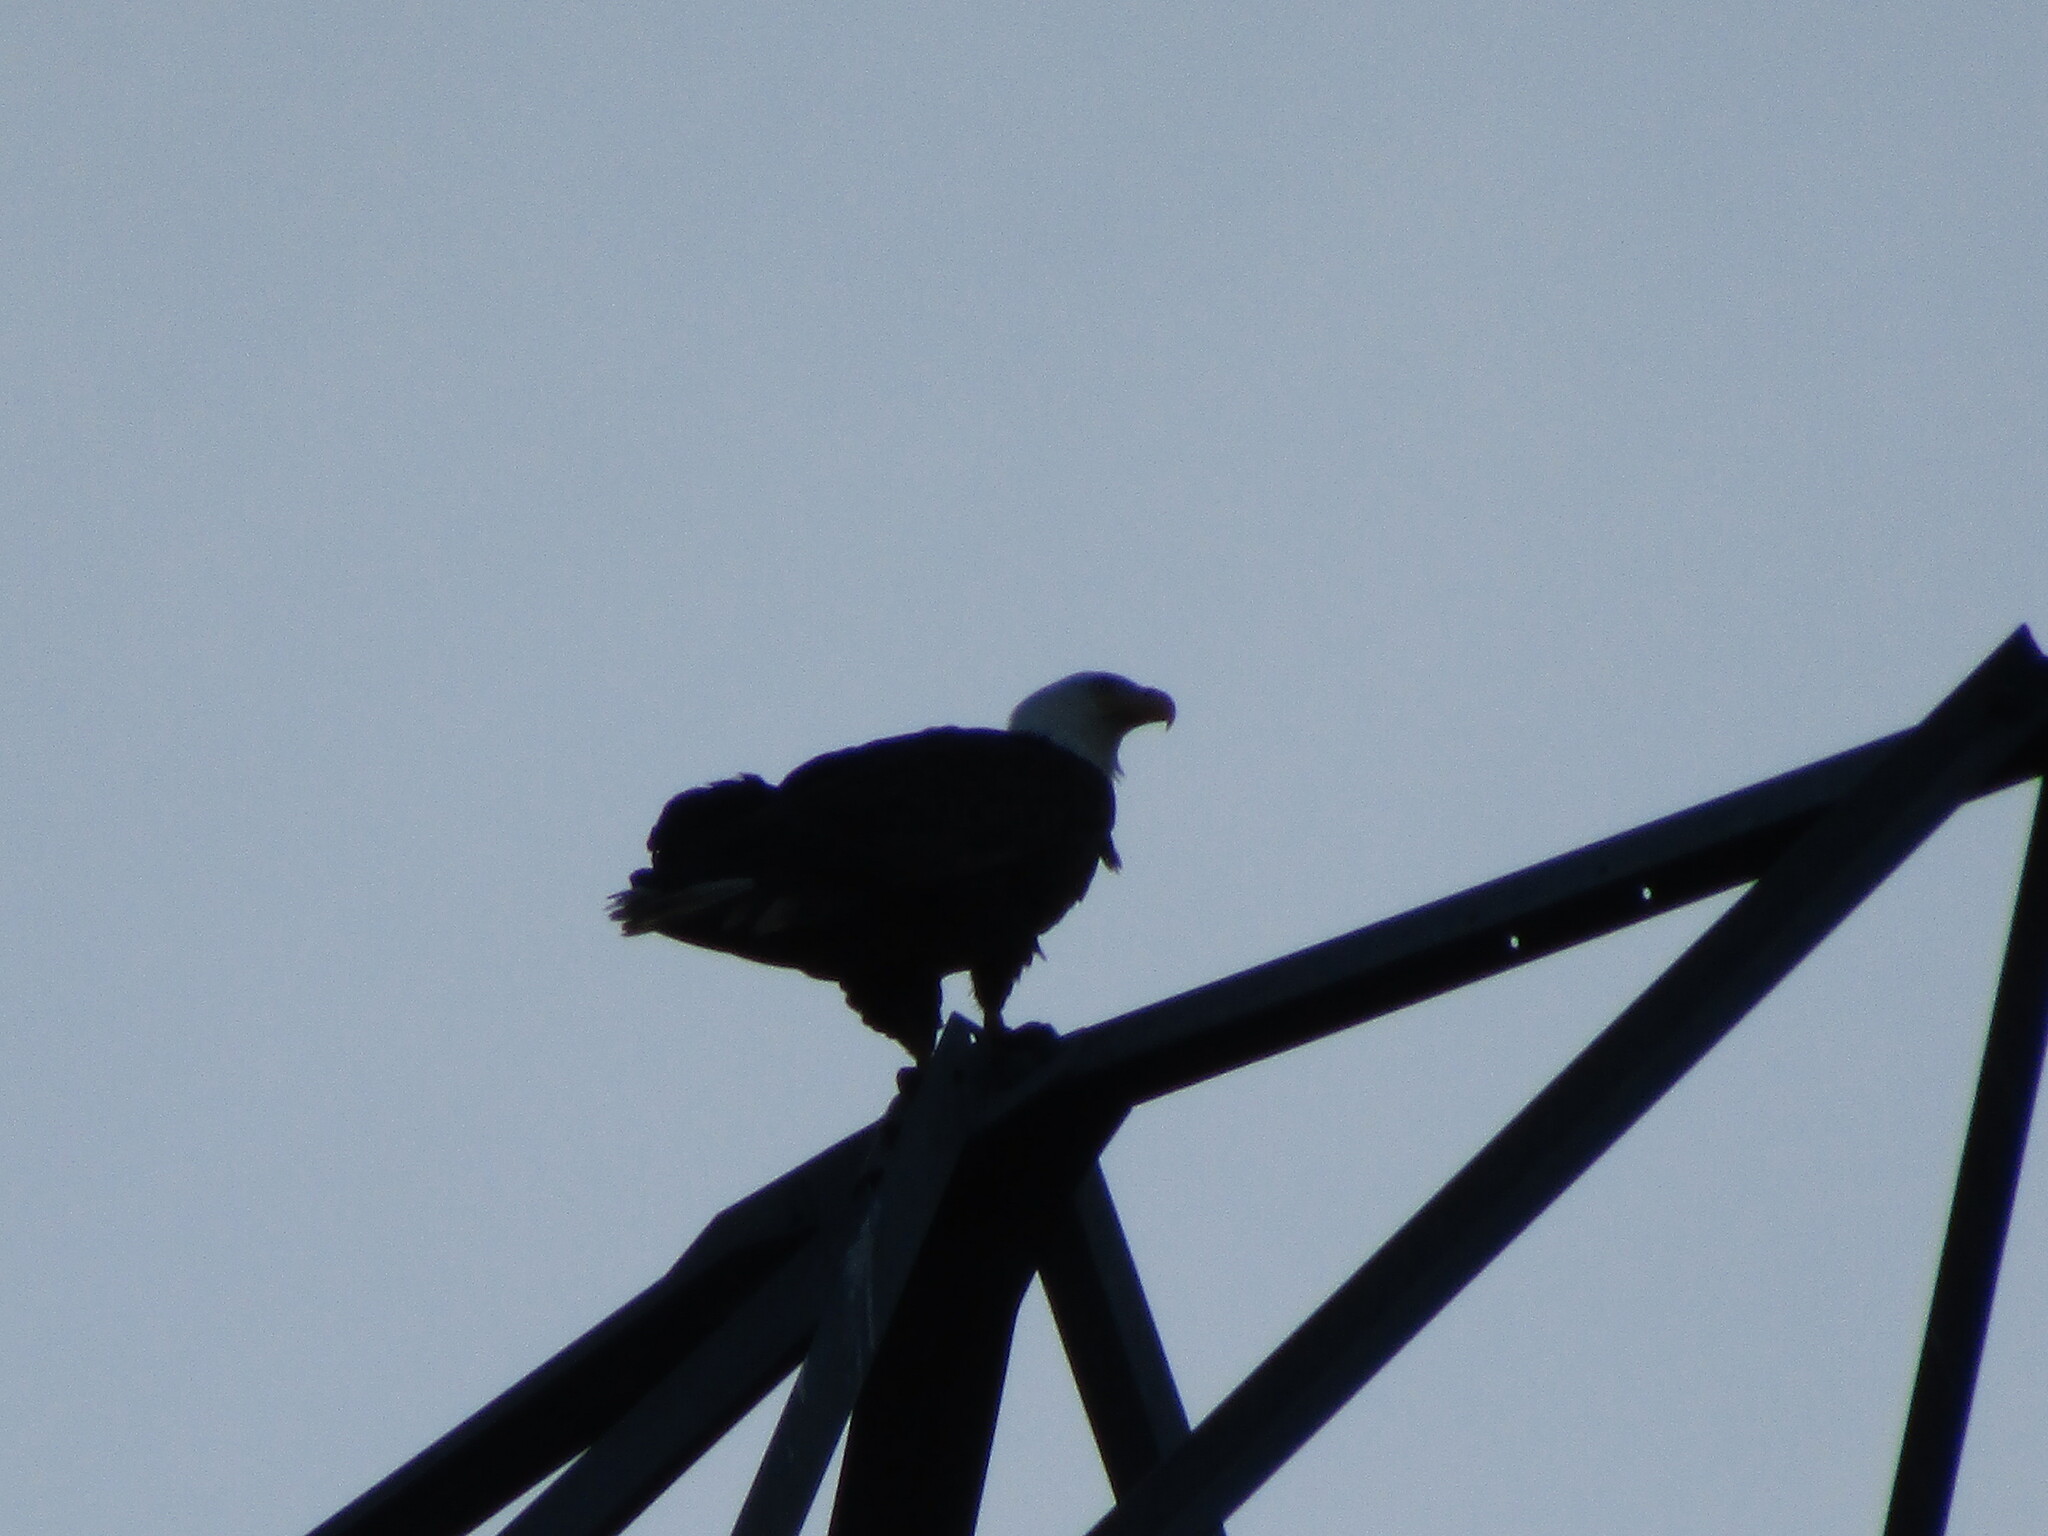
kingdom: Animalia
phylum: Chordata
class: Aves
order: Accipitriformes
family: Accipitridae
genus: Haliaeetus
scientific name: Haliaeetus leucocephalus
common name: Bald eagle
